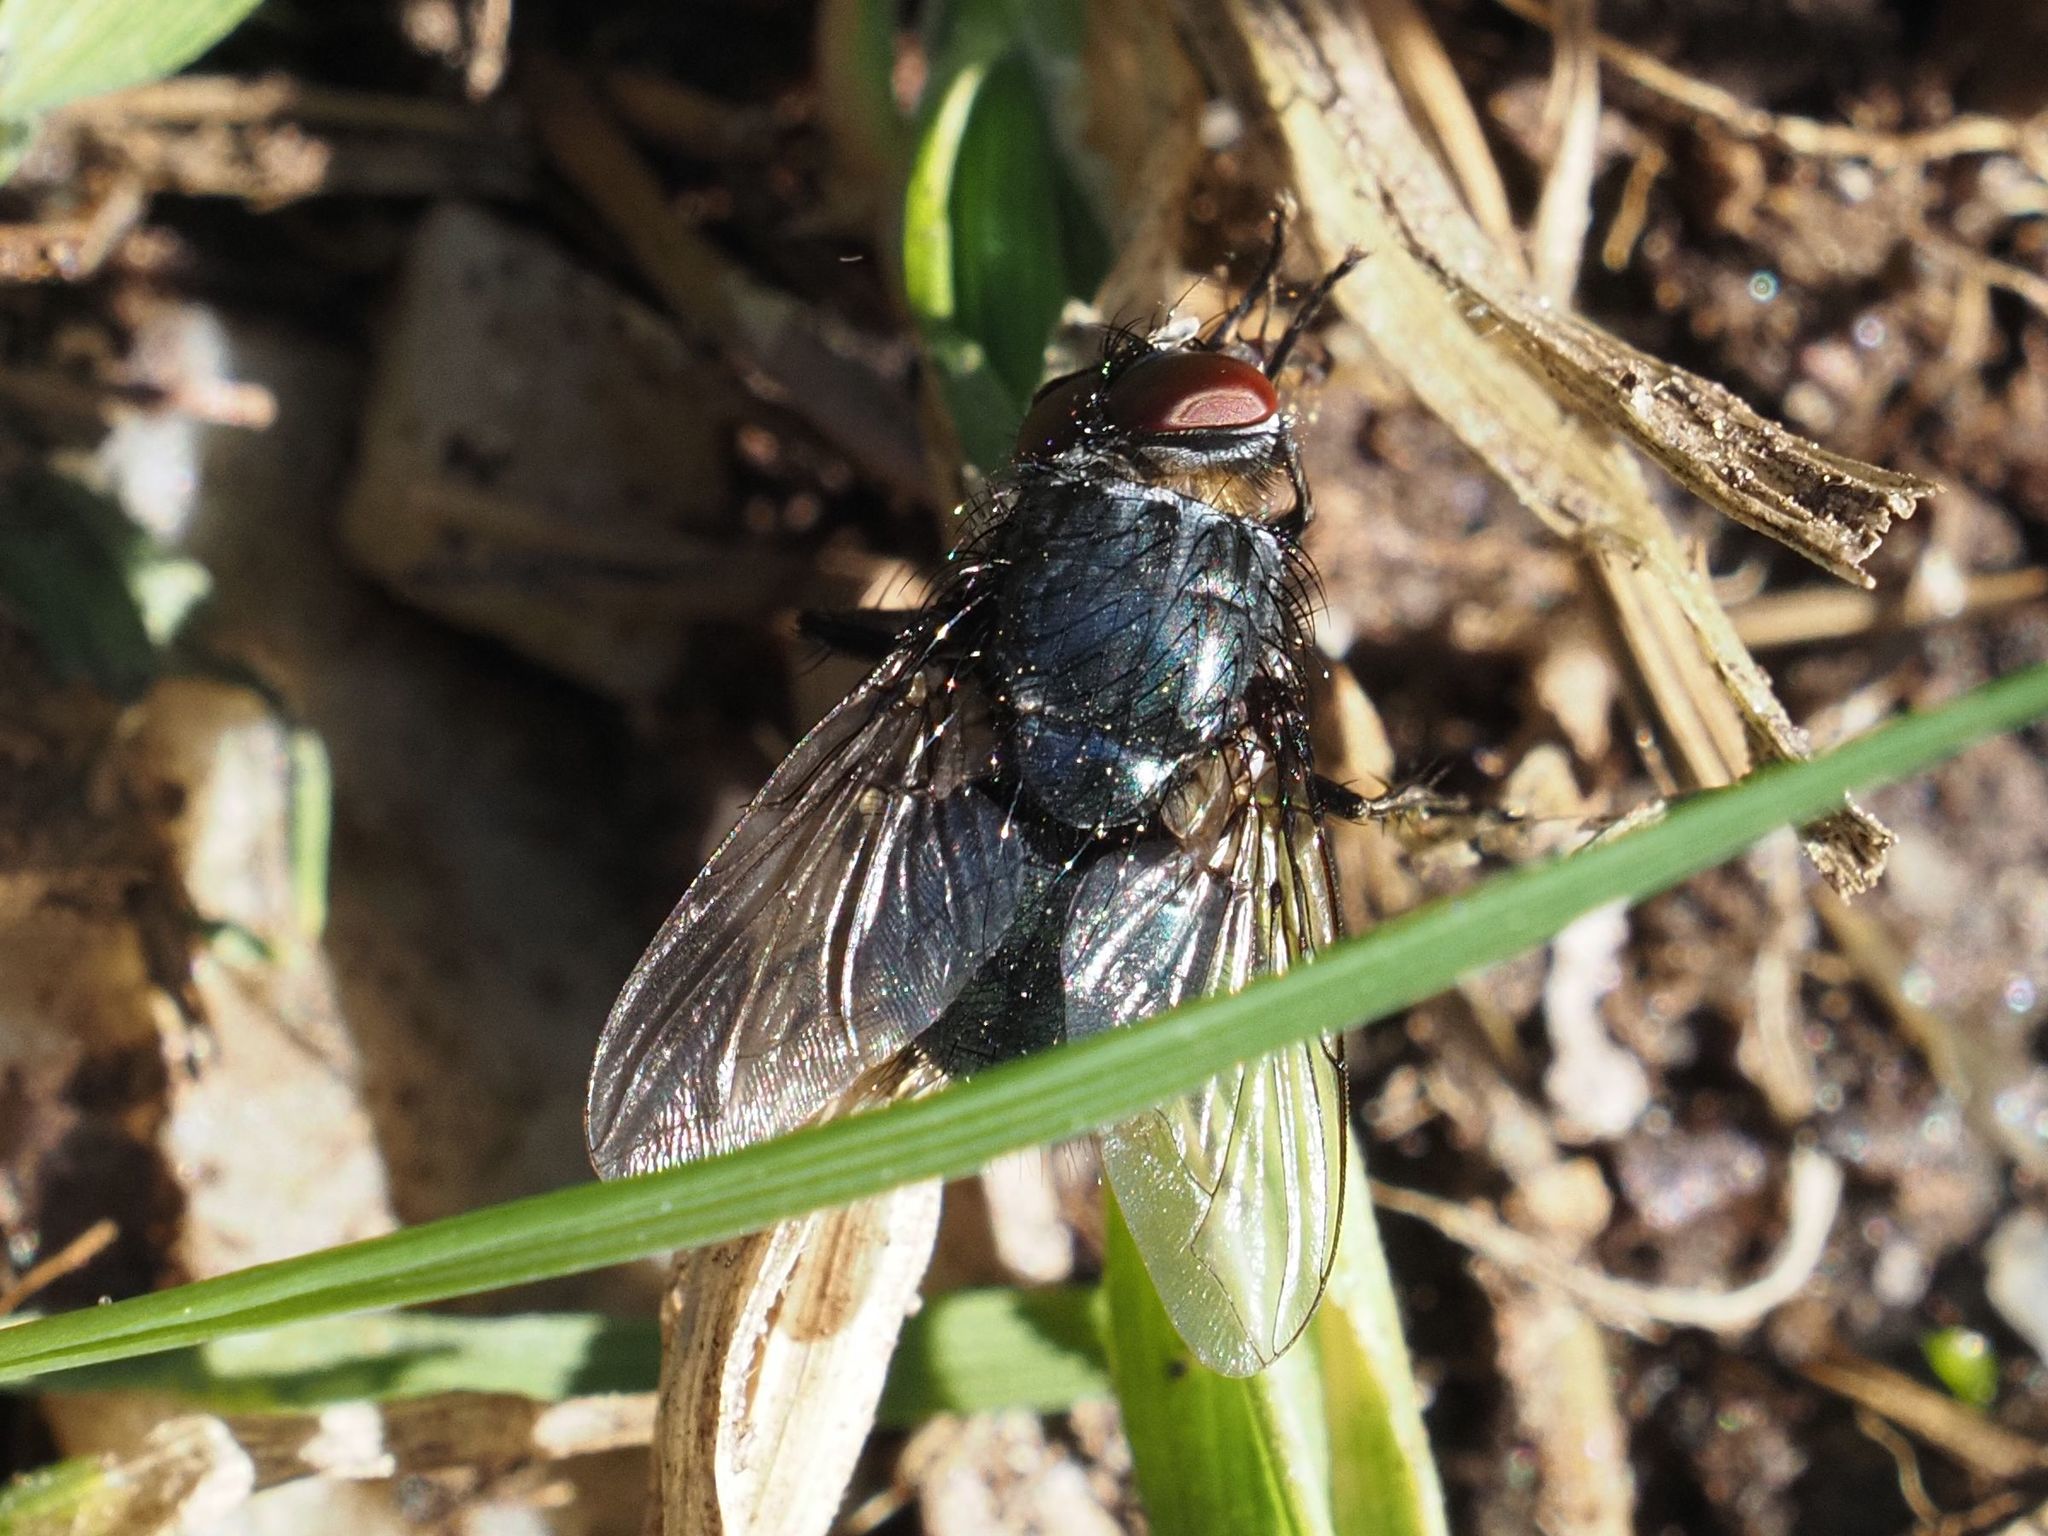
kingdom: Animalia
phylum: Arthropoda
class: Insecta
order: Diptera
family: Calliphoridae
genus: Melinda
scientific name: Melinda gentilis
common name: Pale-palped melinda
